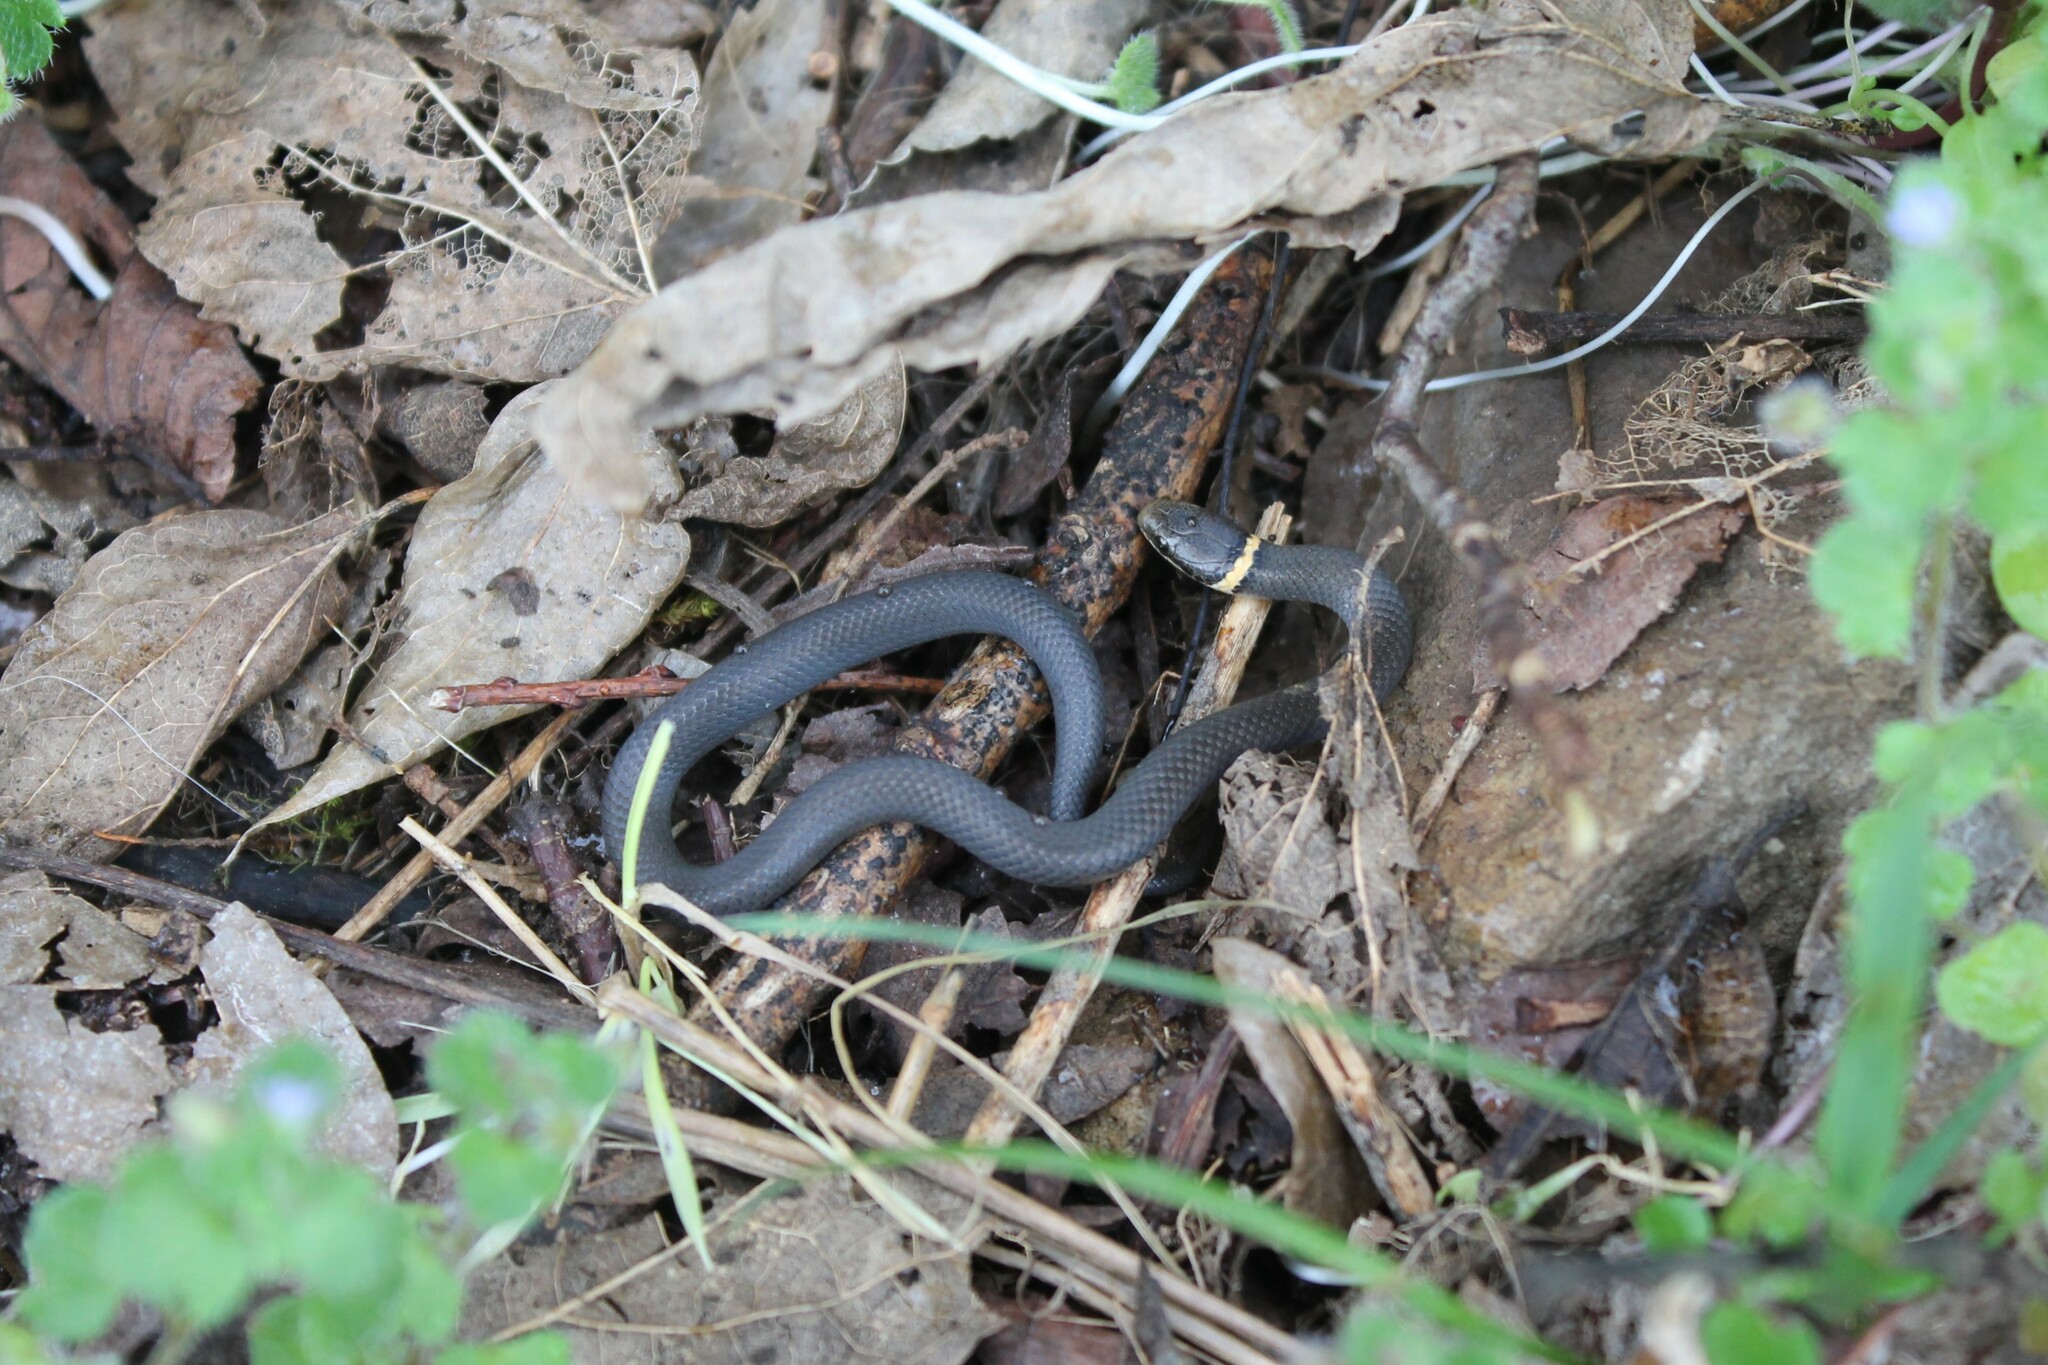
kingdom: Animalia
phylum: Chordata
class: Squamata
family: Colubridae
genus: Diadophis
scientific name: Diadophis punctatus
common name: Ringneck snake
